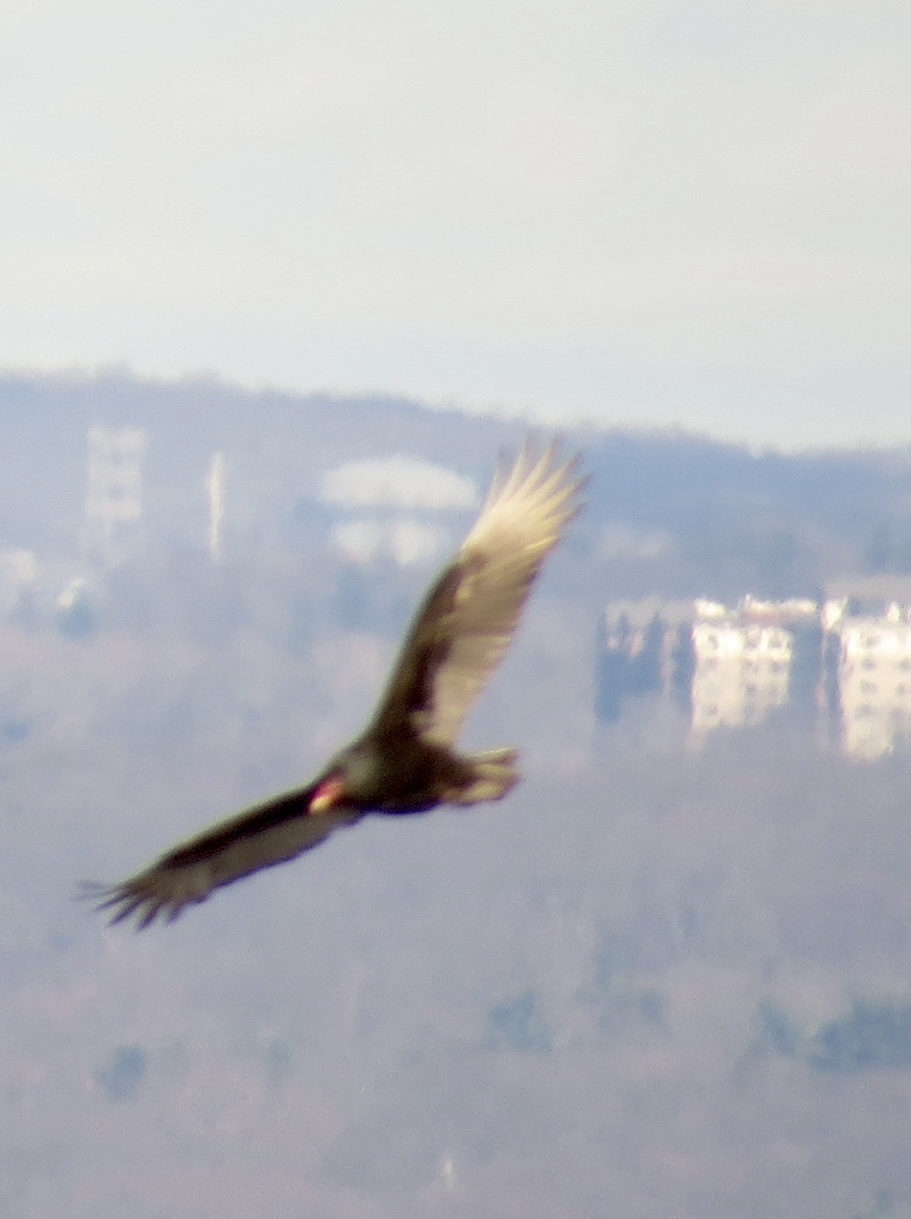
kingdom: Animalia
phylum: Chordata
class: Aves
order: Accipitriformes
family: Cathartidae
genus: Cathartes
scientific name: Cathartes aura
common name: Turkey vulture
